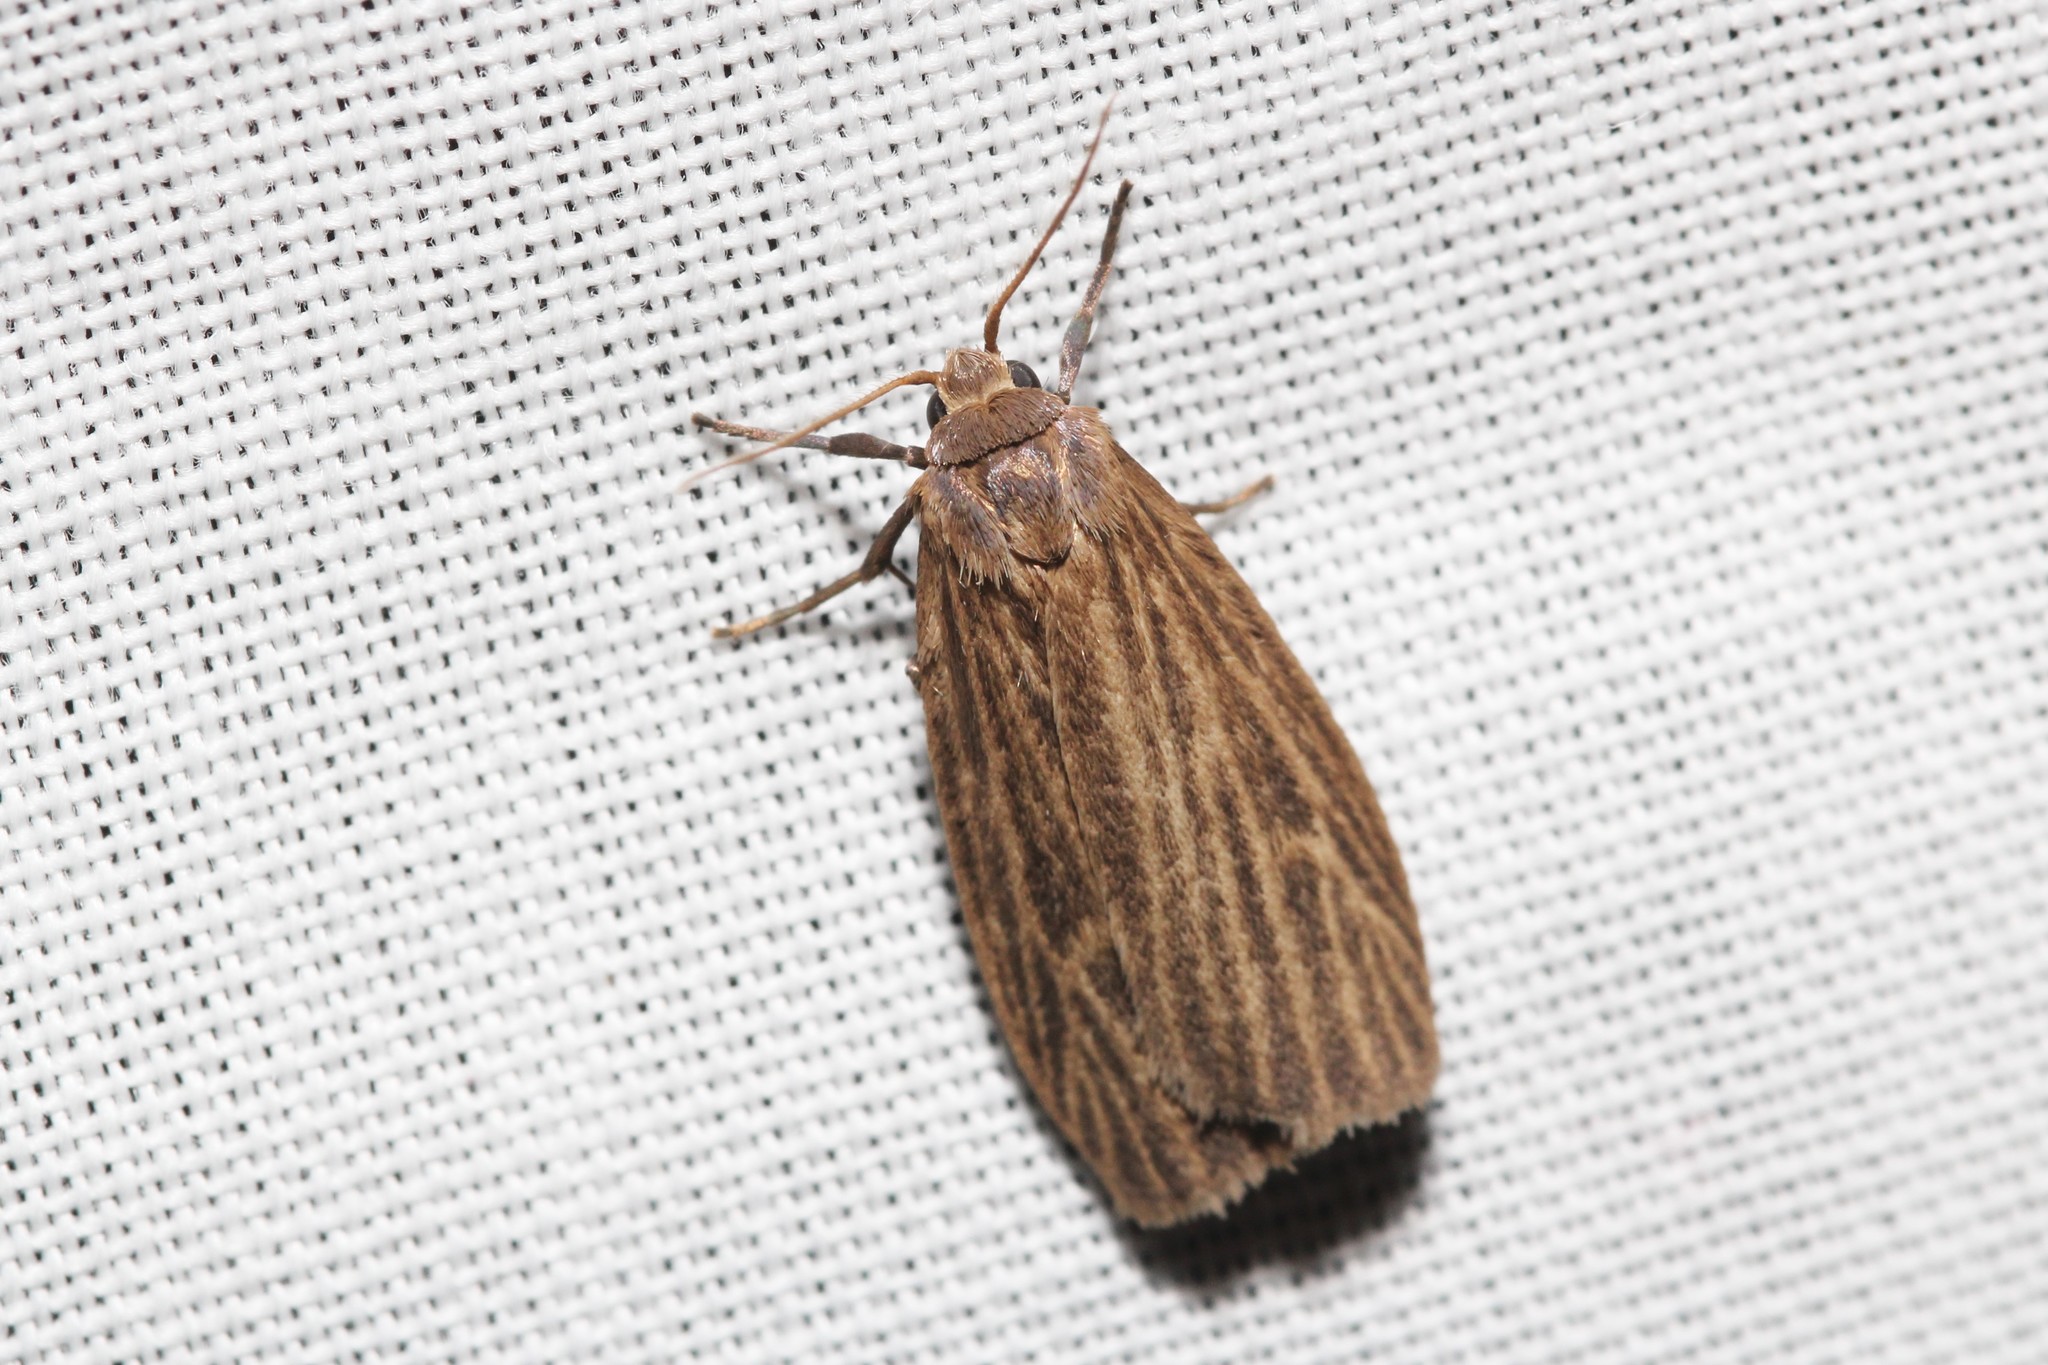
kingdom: Animalia
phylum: Arthropoda
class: Insecta
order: Lepidoptera
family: Erebidae
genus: Crambidia
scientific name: Crambidia pallida
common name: Pale lichen moth
